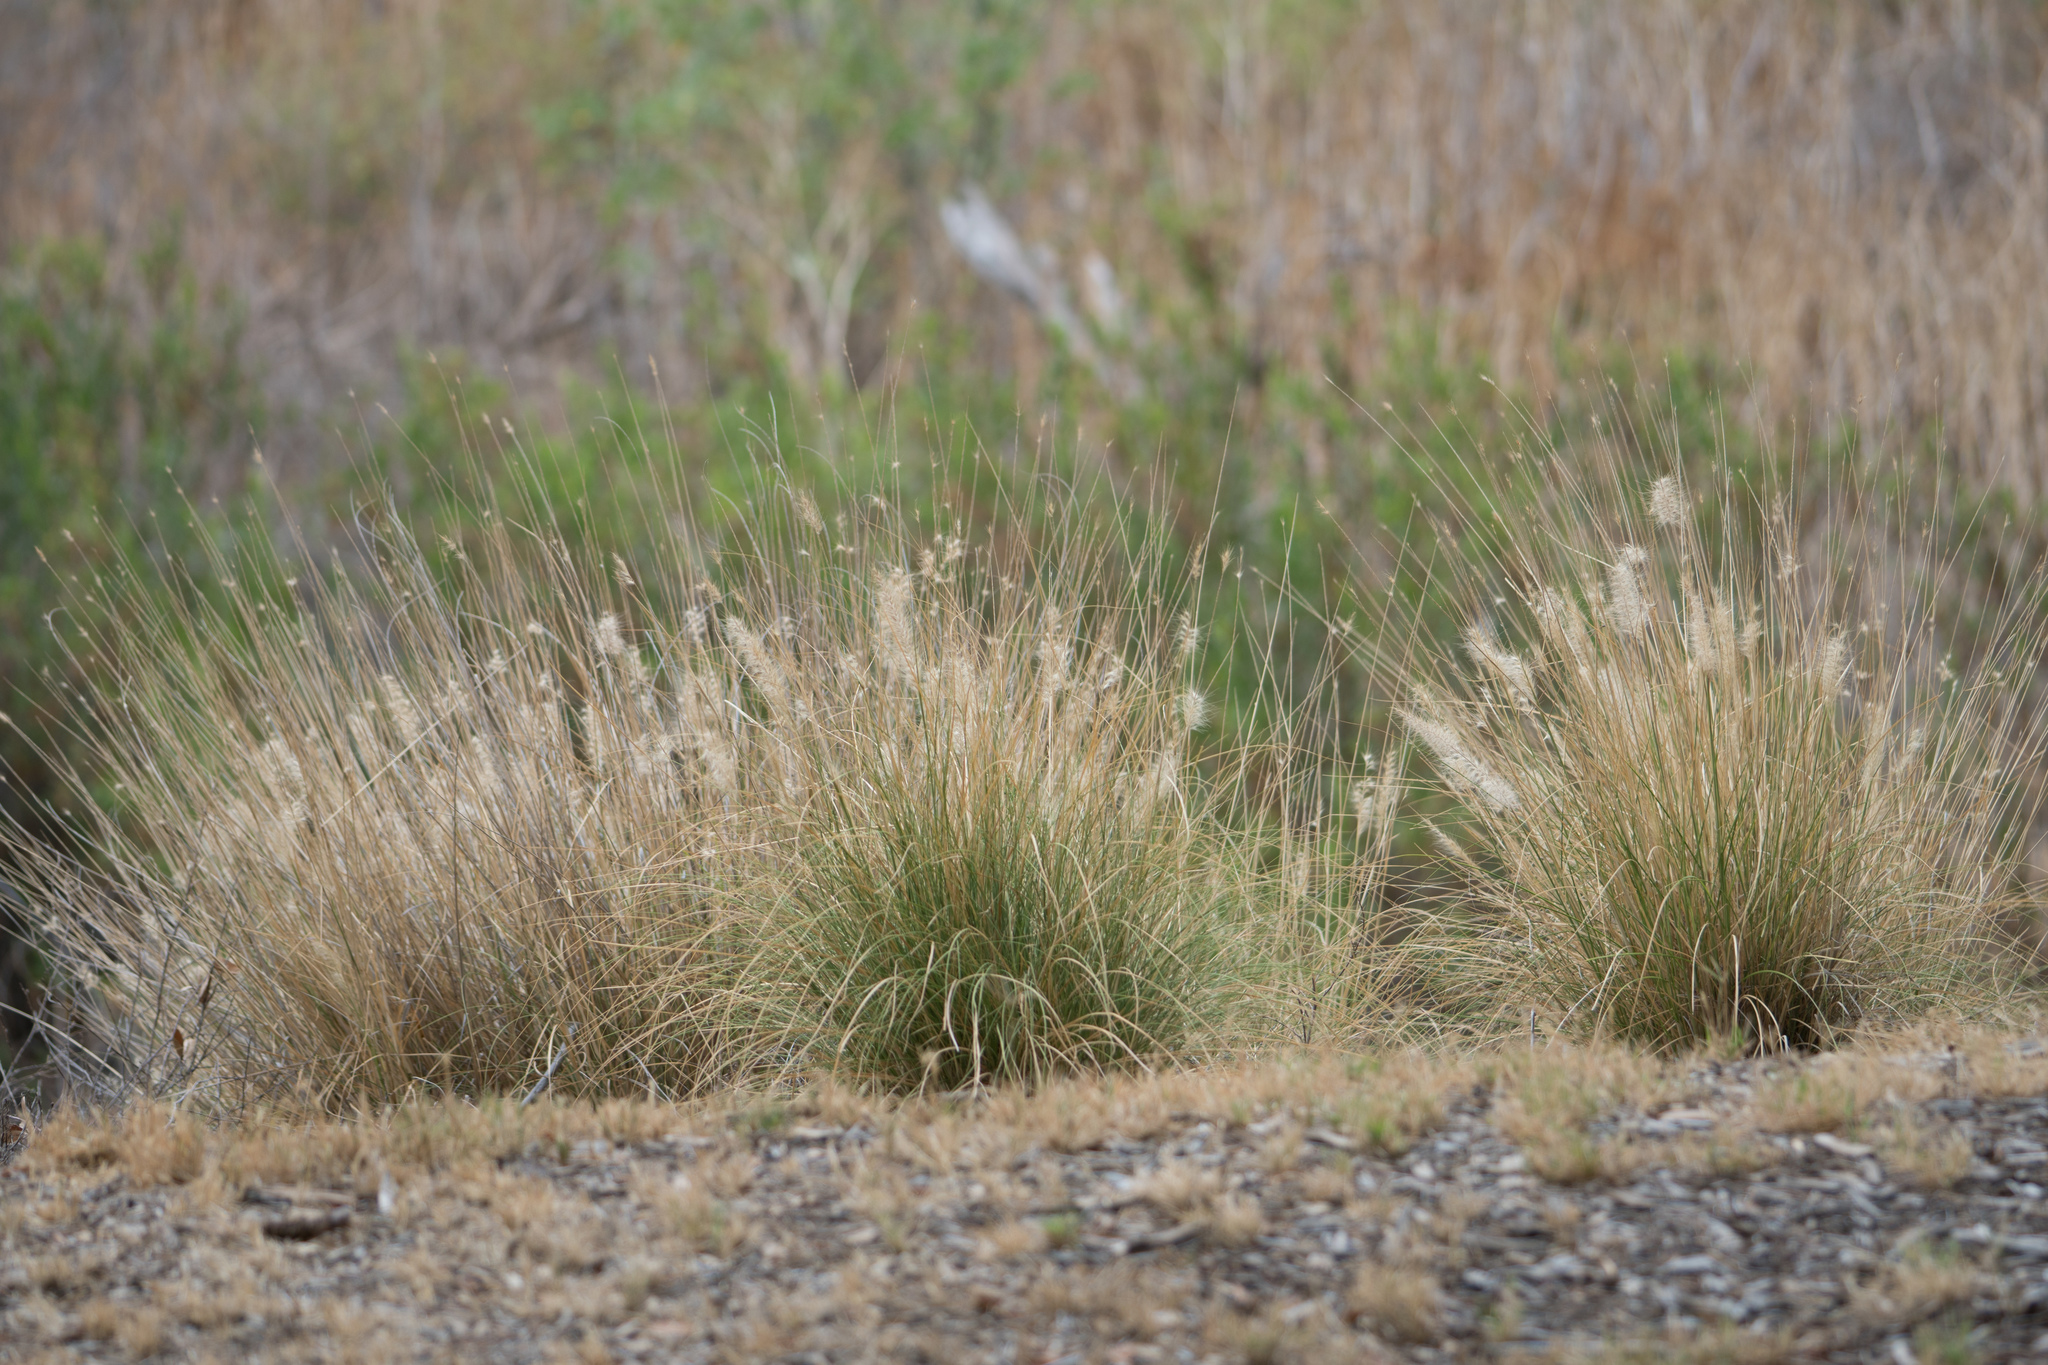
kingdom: Plantae
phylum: Tracheophyta
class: Liliopsida
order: Poales
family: Poaceae
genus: Cenchrus
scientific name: Cenchrus setaceus
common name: Crimson fountaingrass
